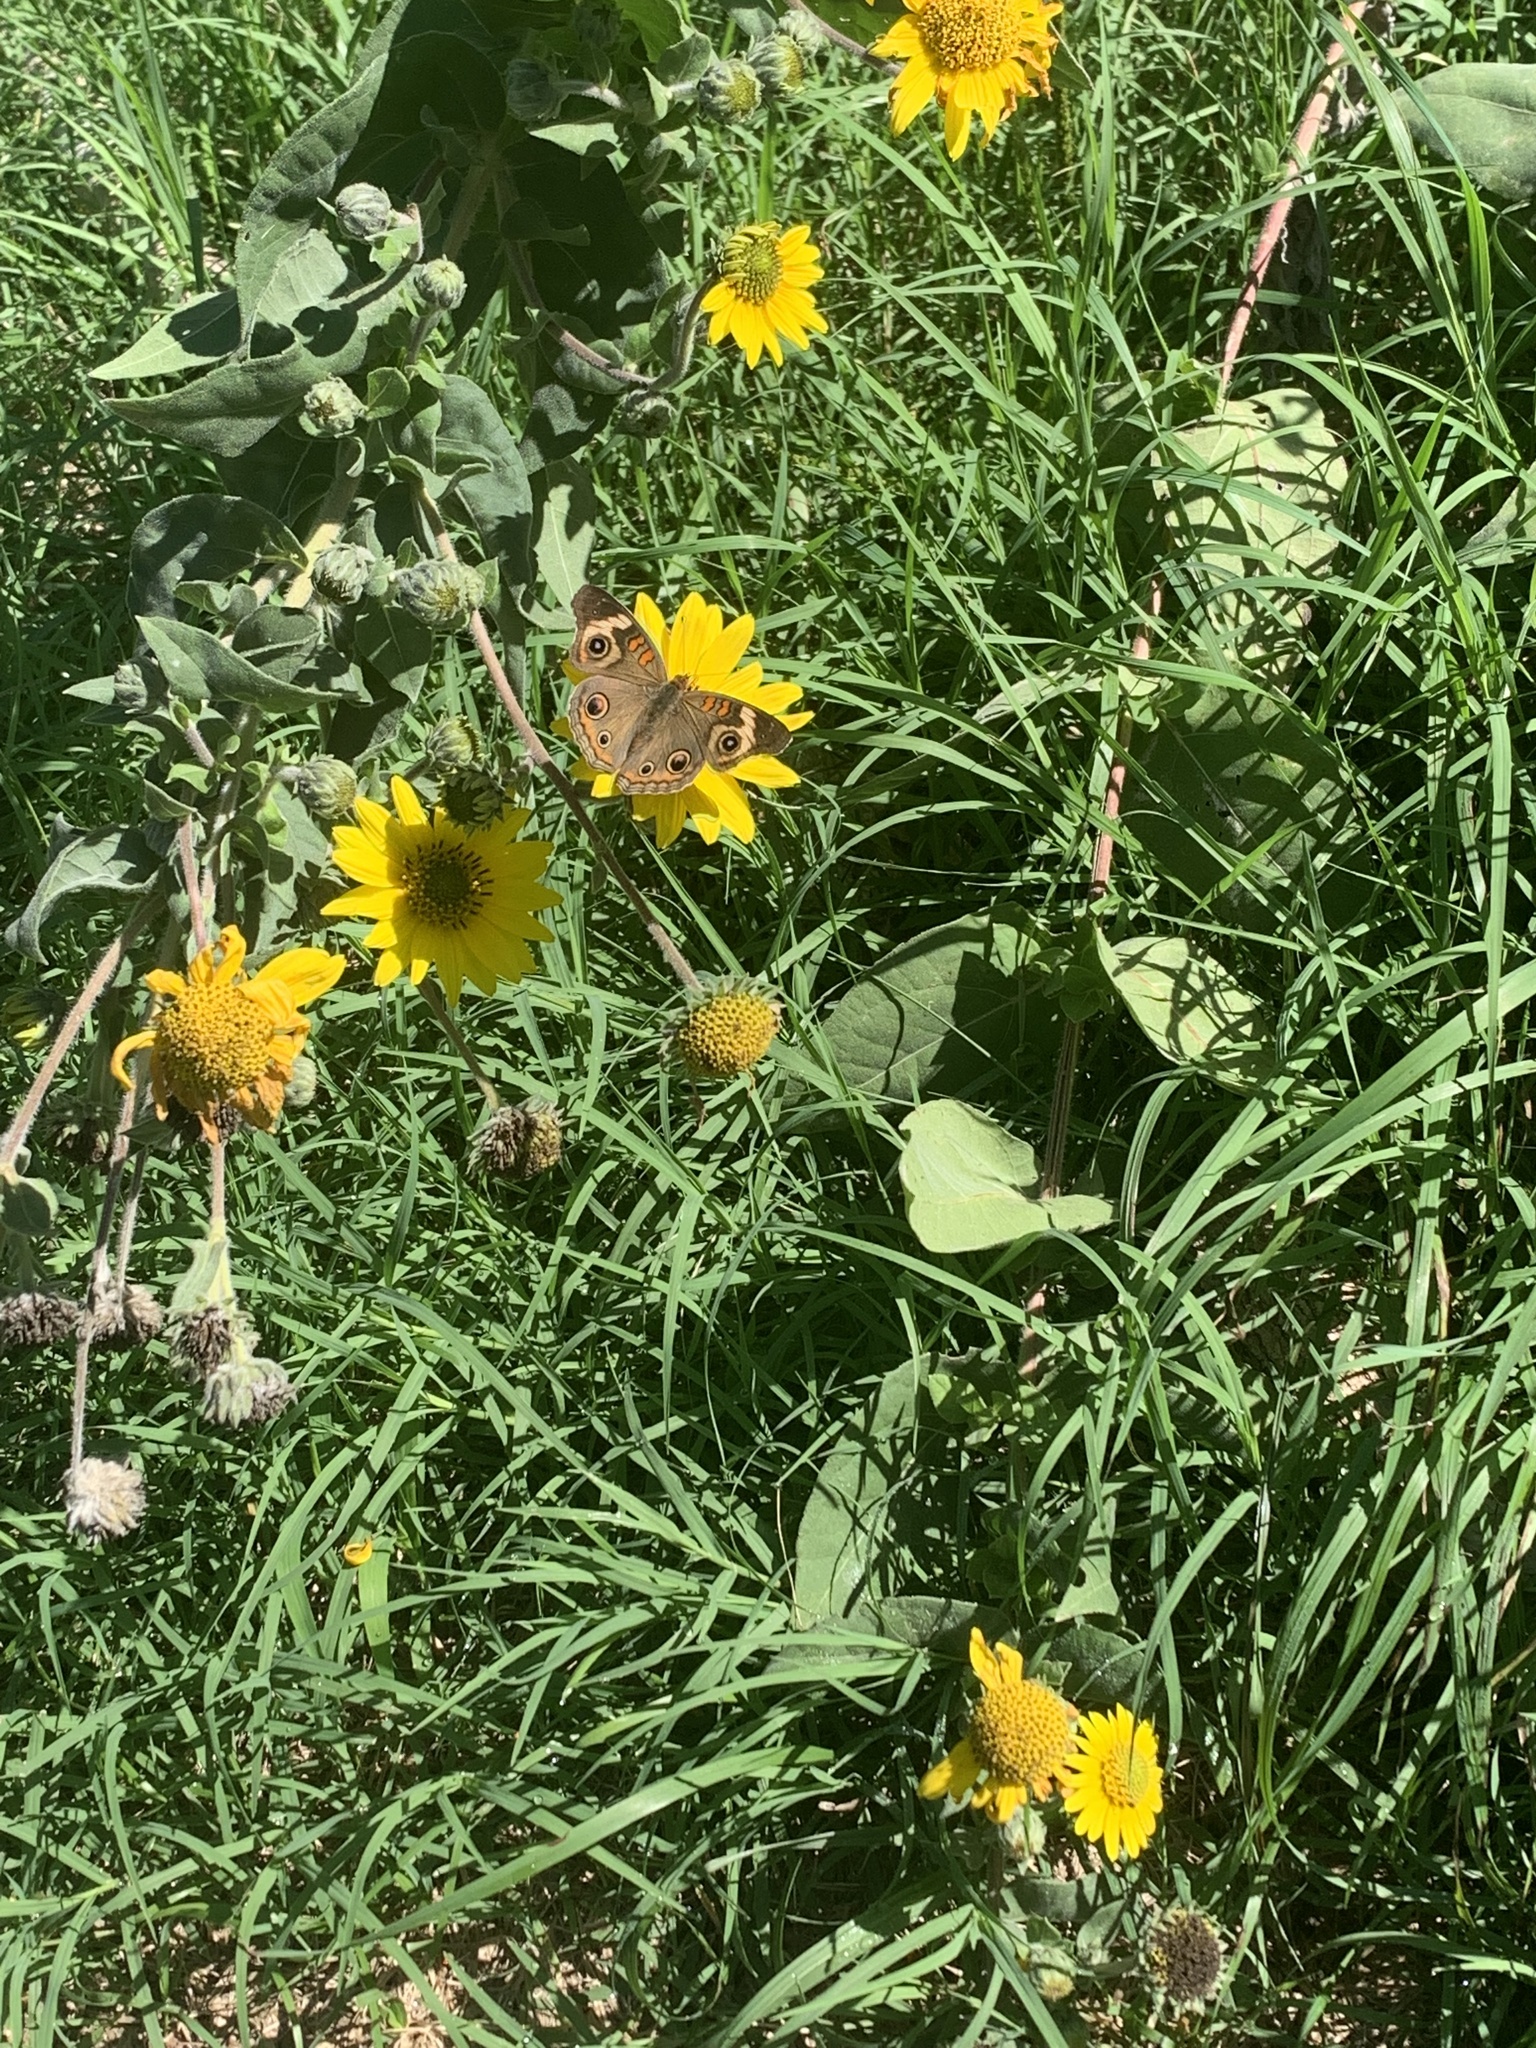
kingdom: Animalia
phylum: Arthropoda
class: Insecta
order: Lepidoptera
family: Nymphalidae
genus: Junonia
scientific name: Junonia coenia
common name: Common buckeye
